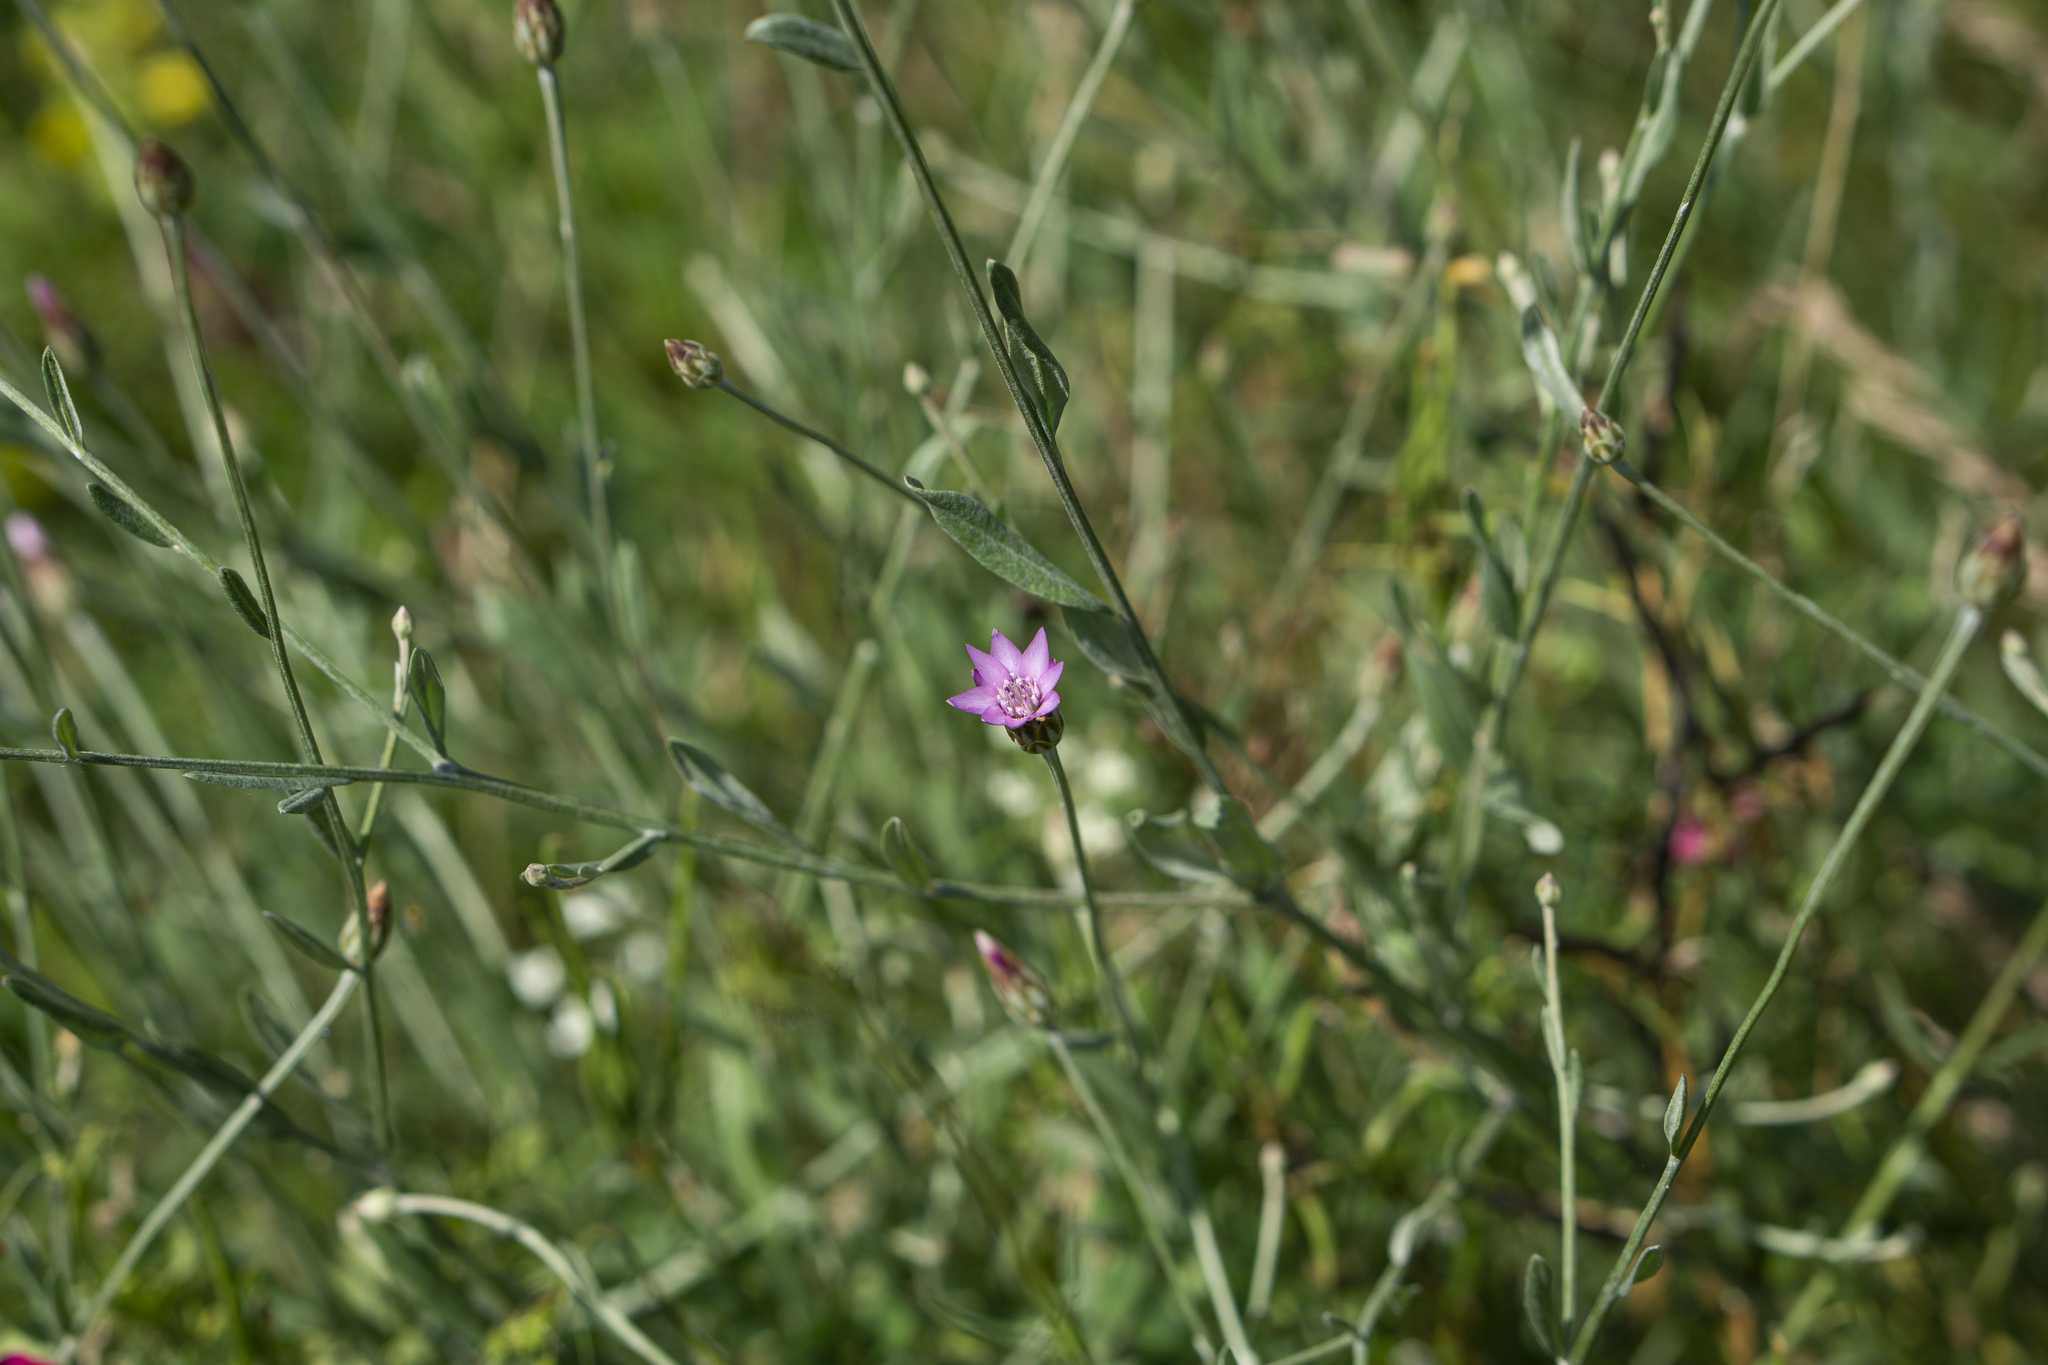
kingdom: Plantae
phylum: Tracheophyta
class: Magnoliopsida
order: Asterales
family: Asteraceae
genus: Xeranthemum
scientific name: Xeranthemum cylindraceum
